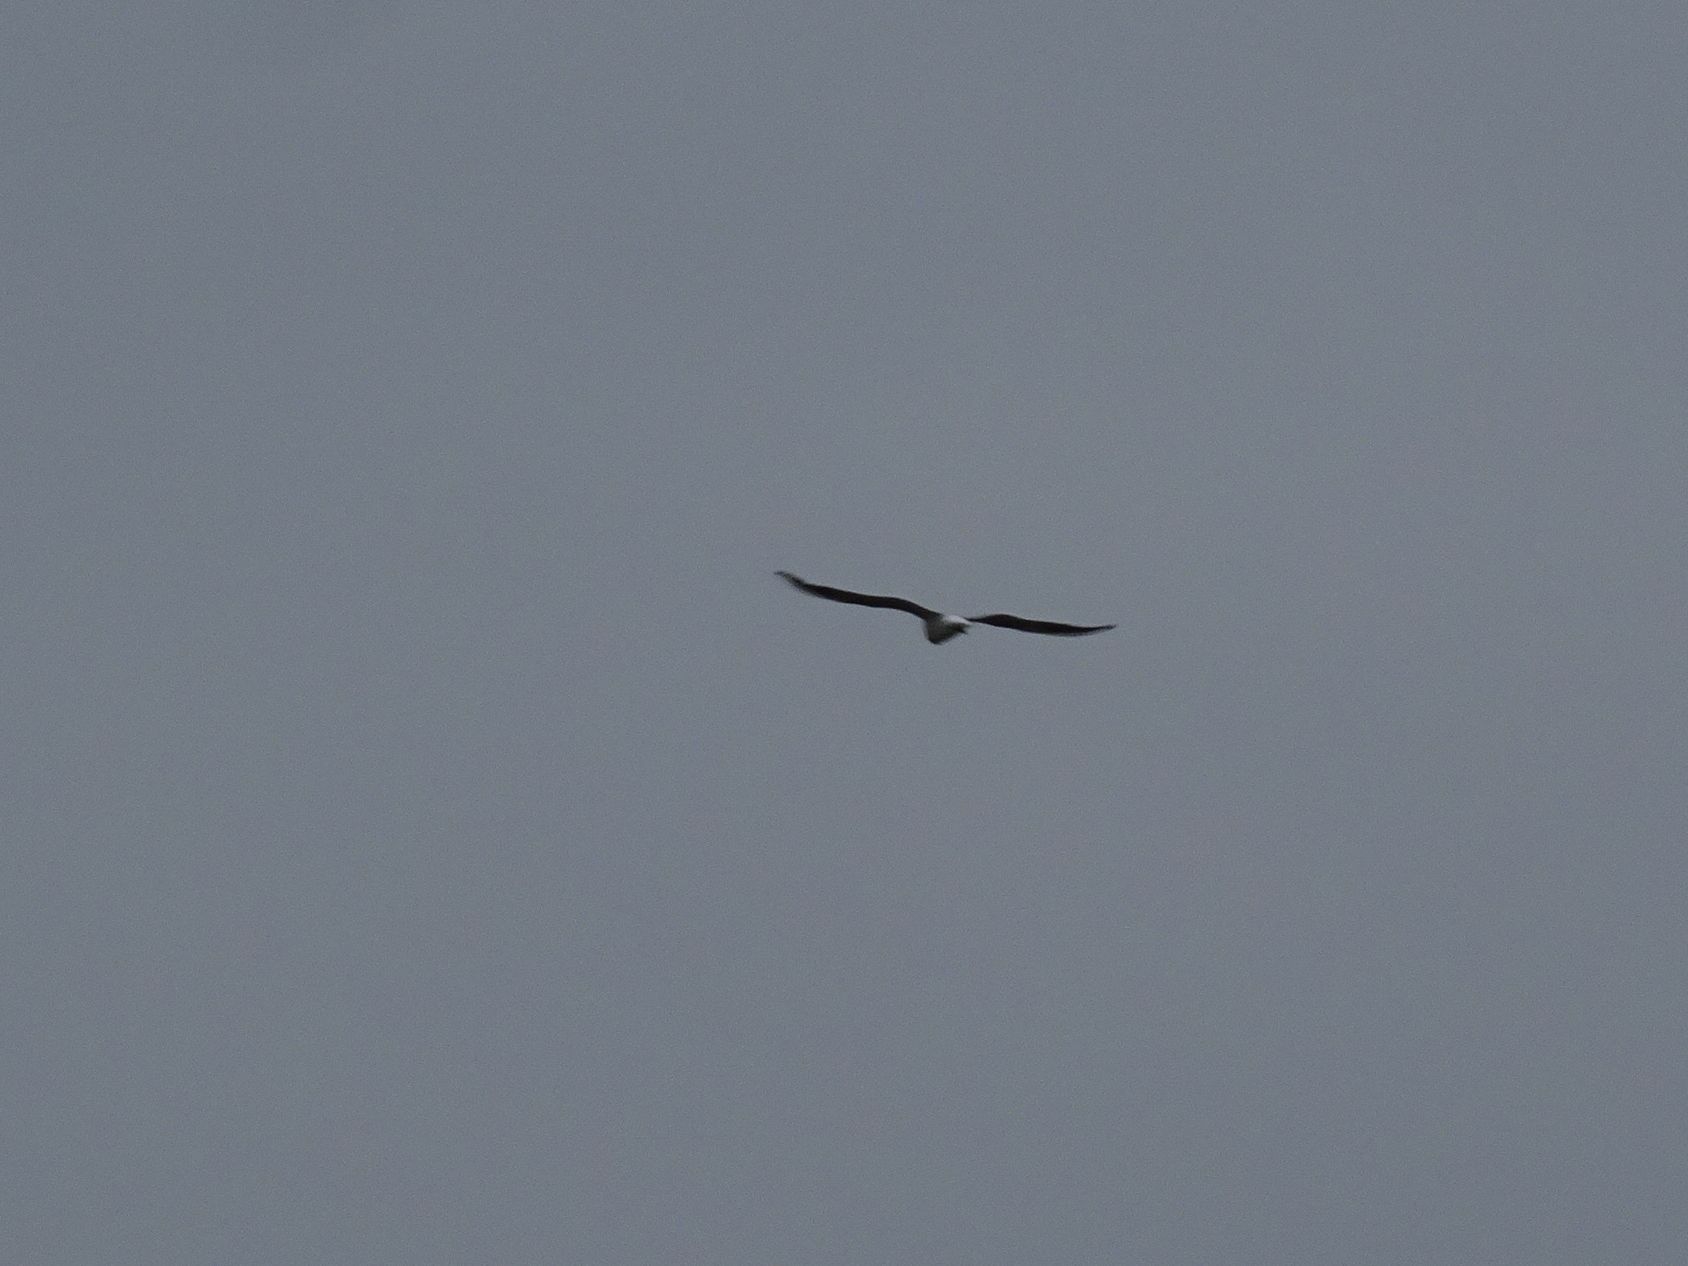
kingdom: Animalia
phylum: Chordata
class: Aves
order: Charadriiformes
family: Laridae
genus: Chroicocephalus
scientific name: Chroicocephalus ridibundus
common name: Black-headed gull
